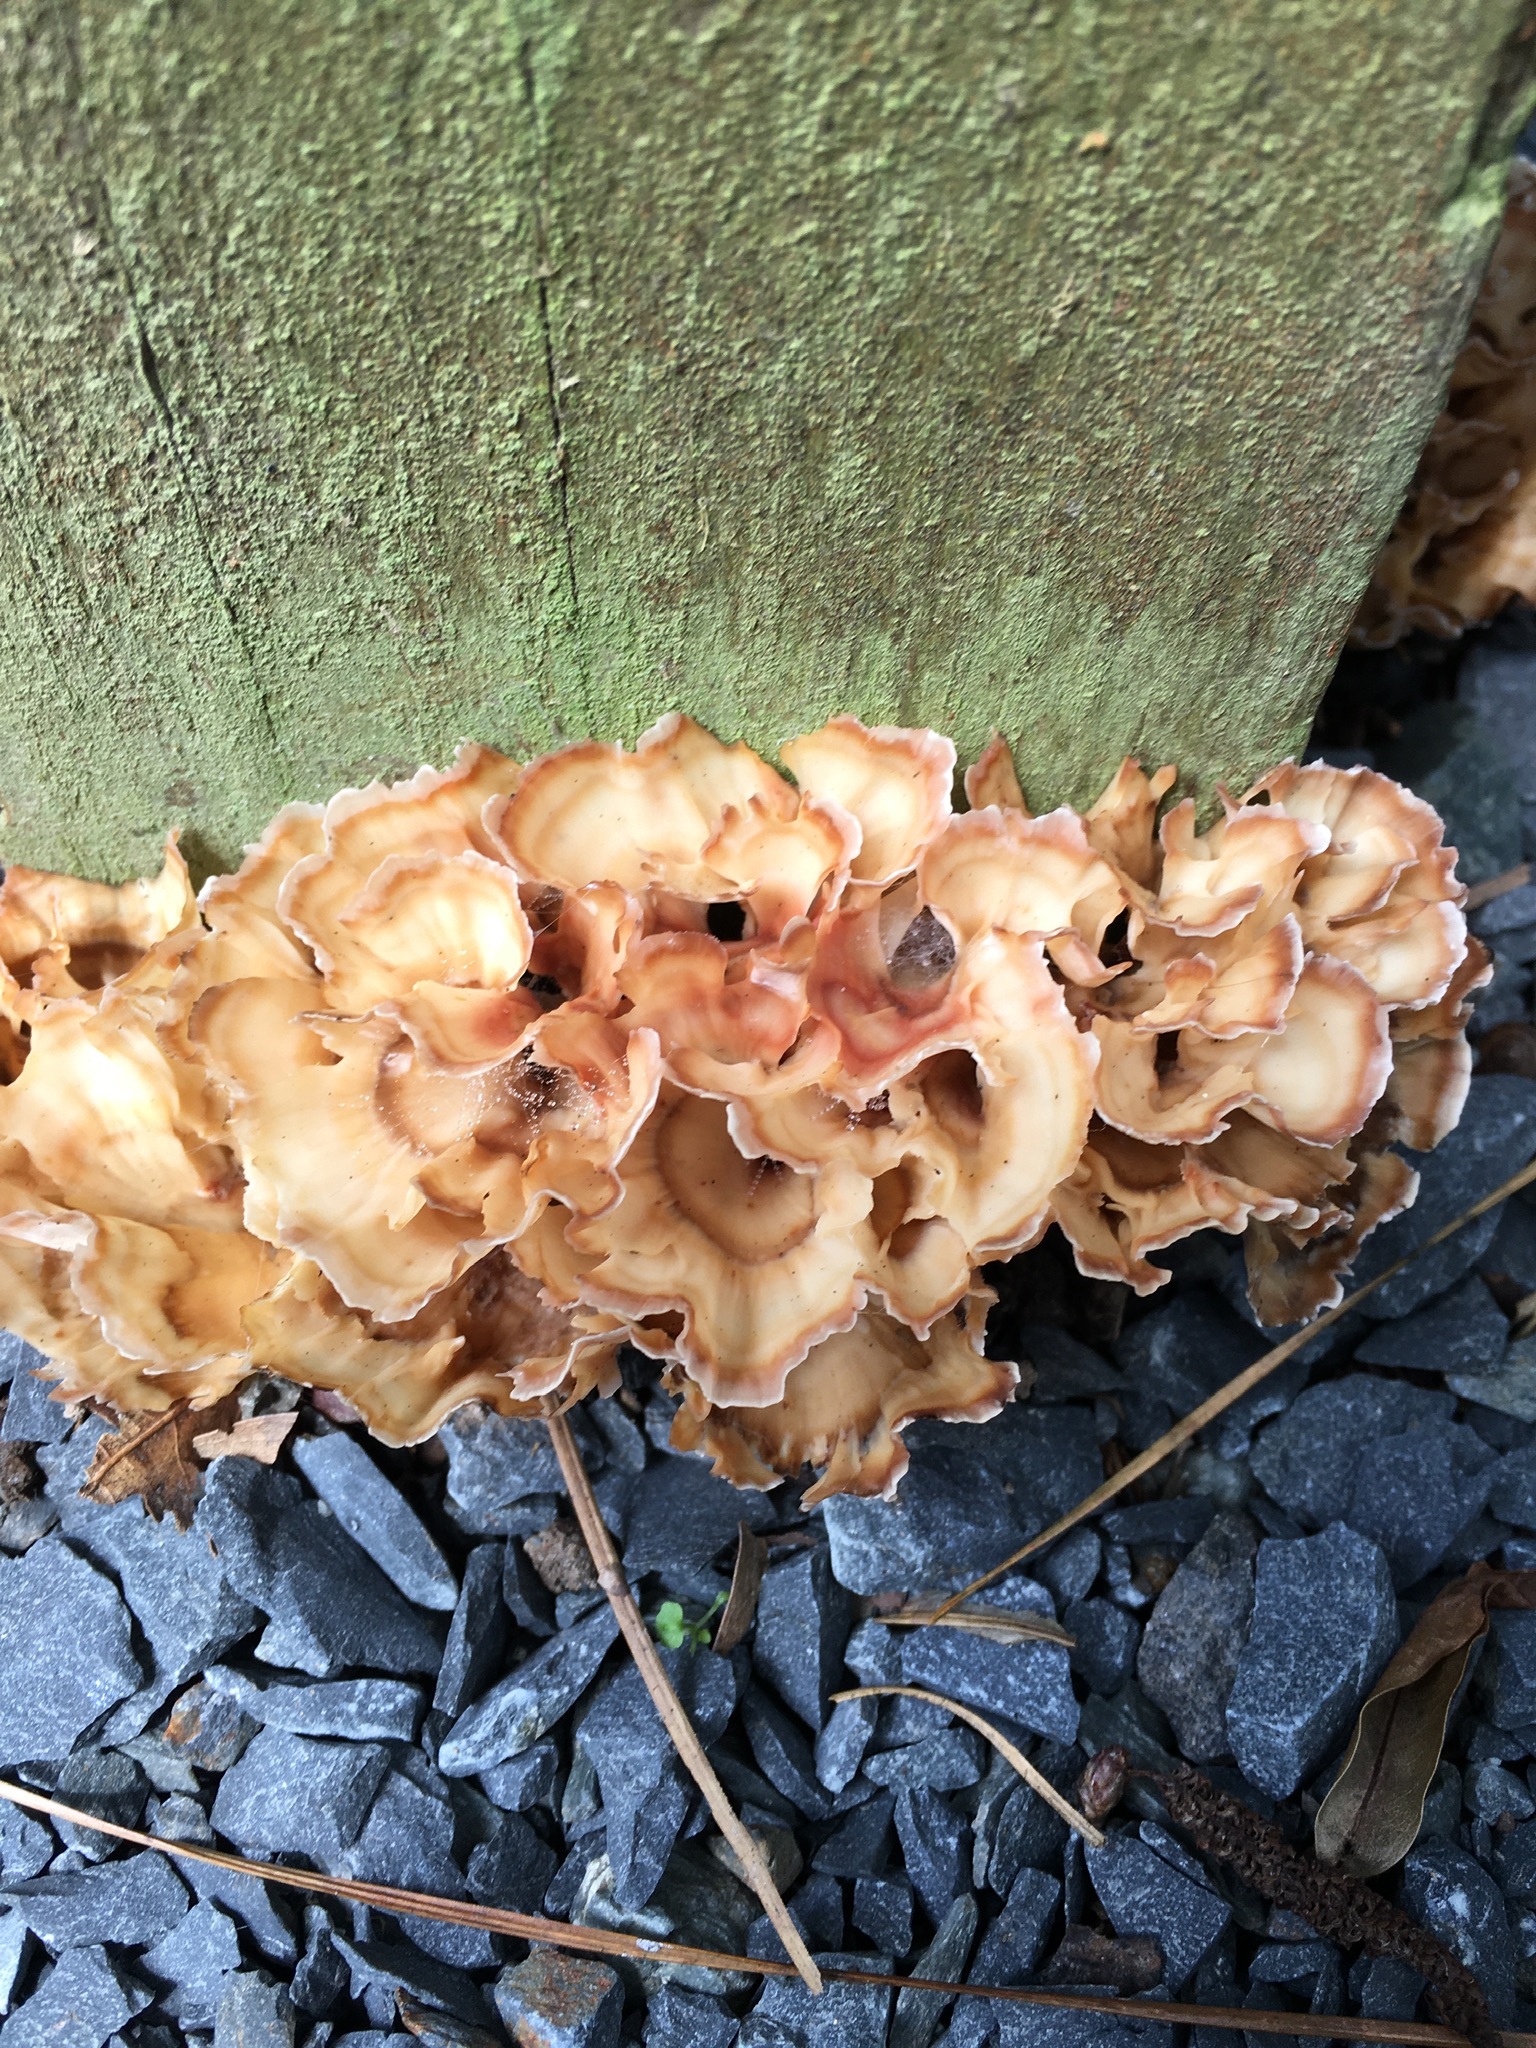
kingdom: Fungi
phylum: Basidiomycota
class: Agaricomycetes
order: Polyporales
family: Podoscyphaceae
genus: Podoscypha
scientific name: Podoscypha petalodes
